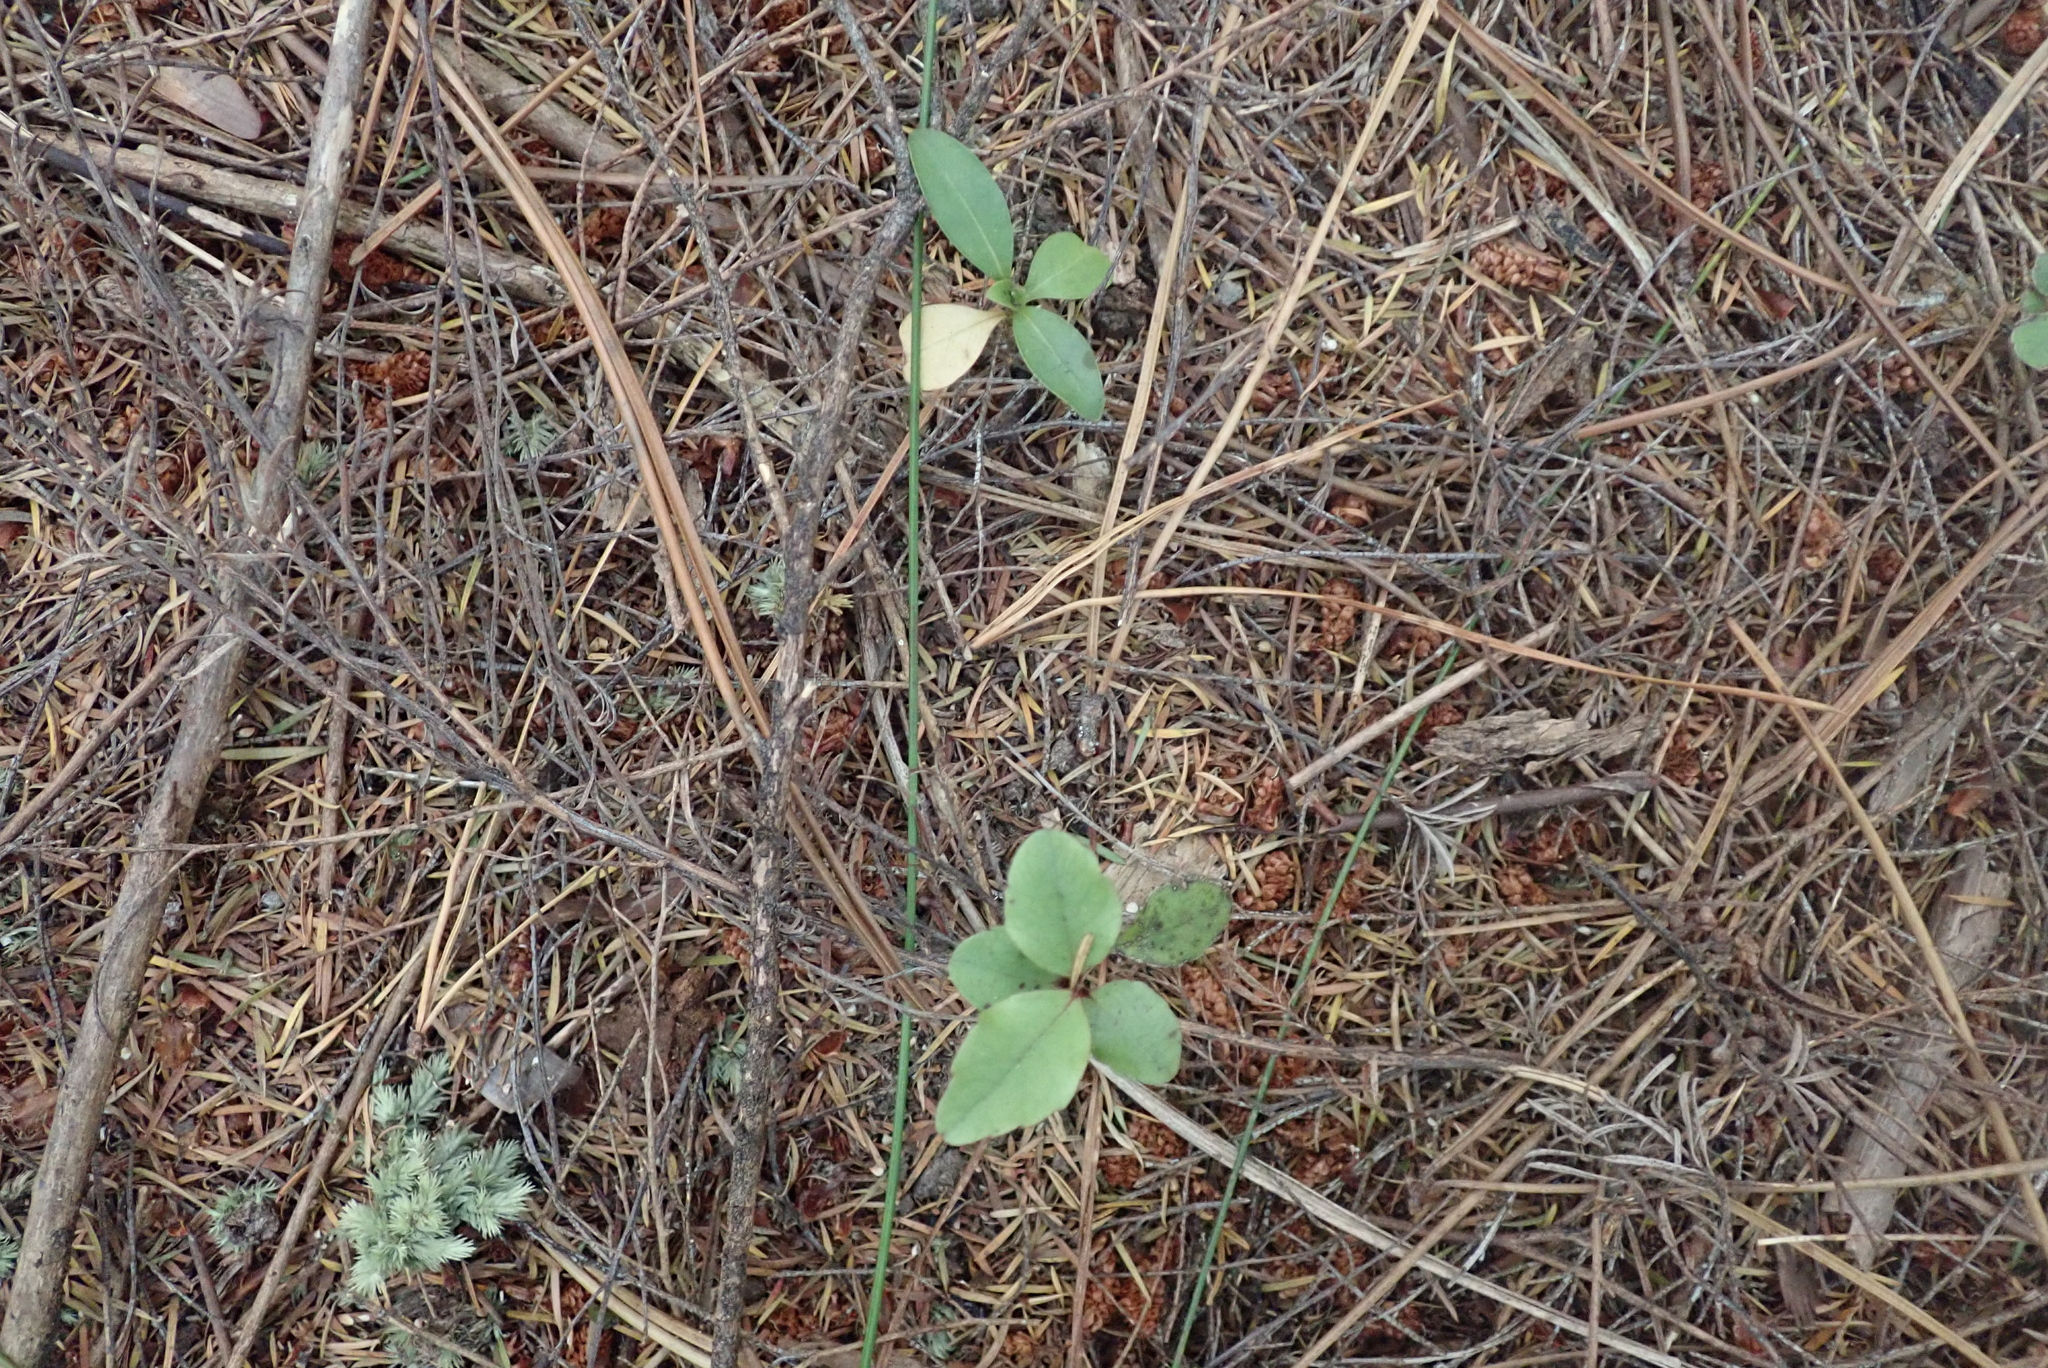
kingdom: Plantae
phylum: Tracheophyta
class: Magnoliopsida
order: Gentianales
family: Rubiaceae
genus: Coprosma
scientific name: Coprosma lucida
